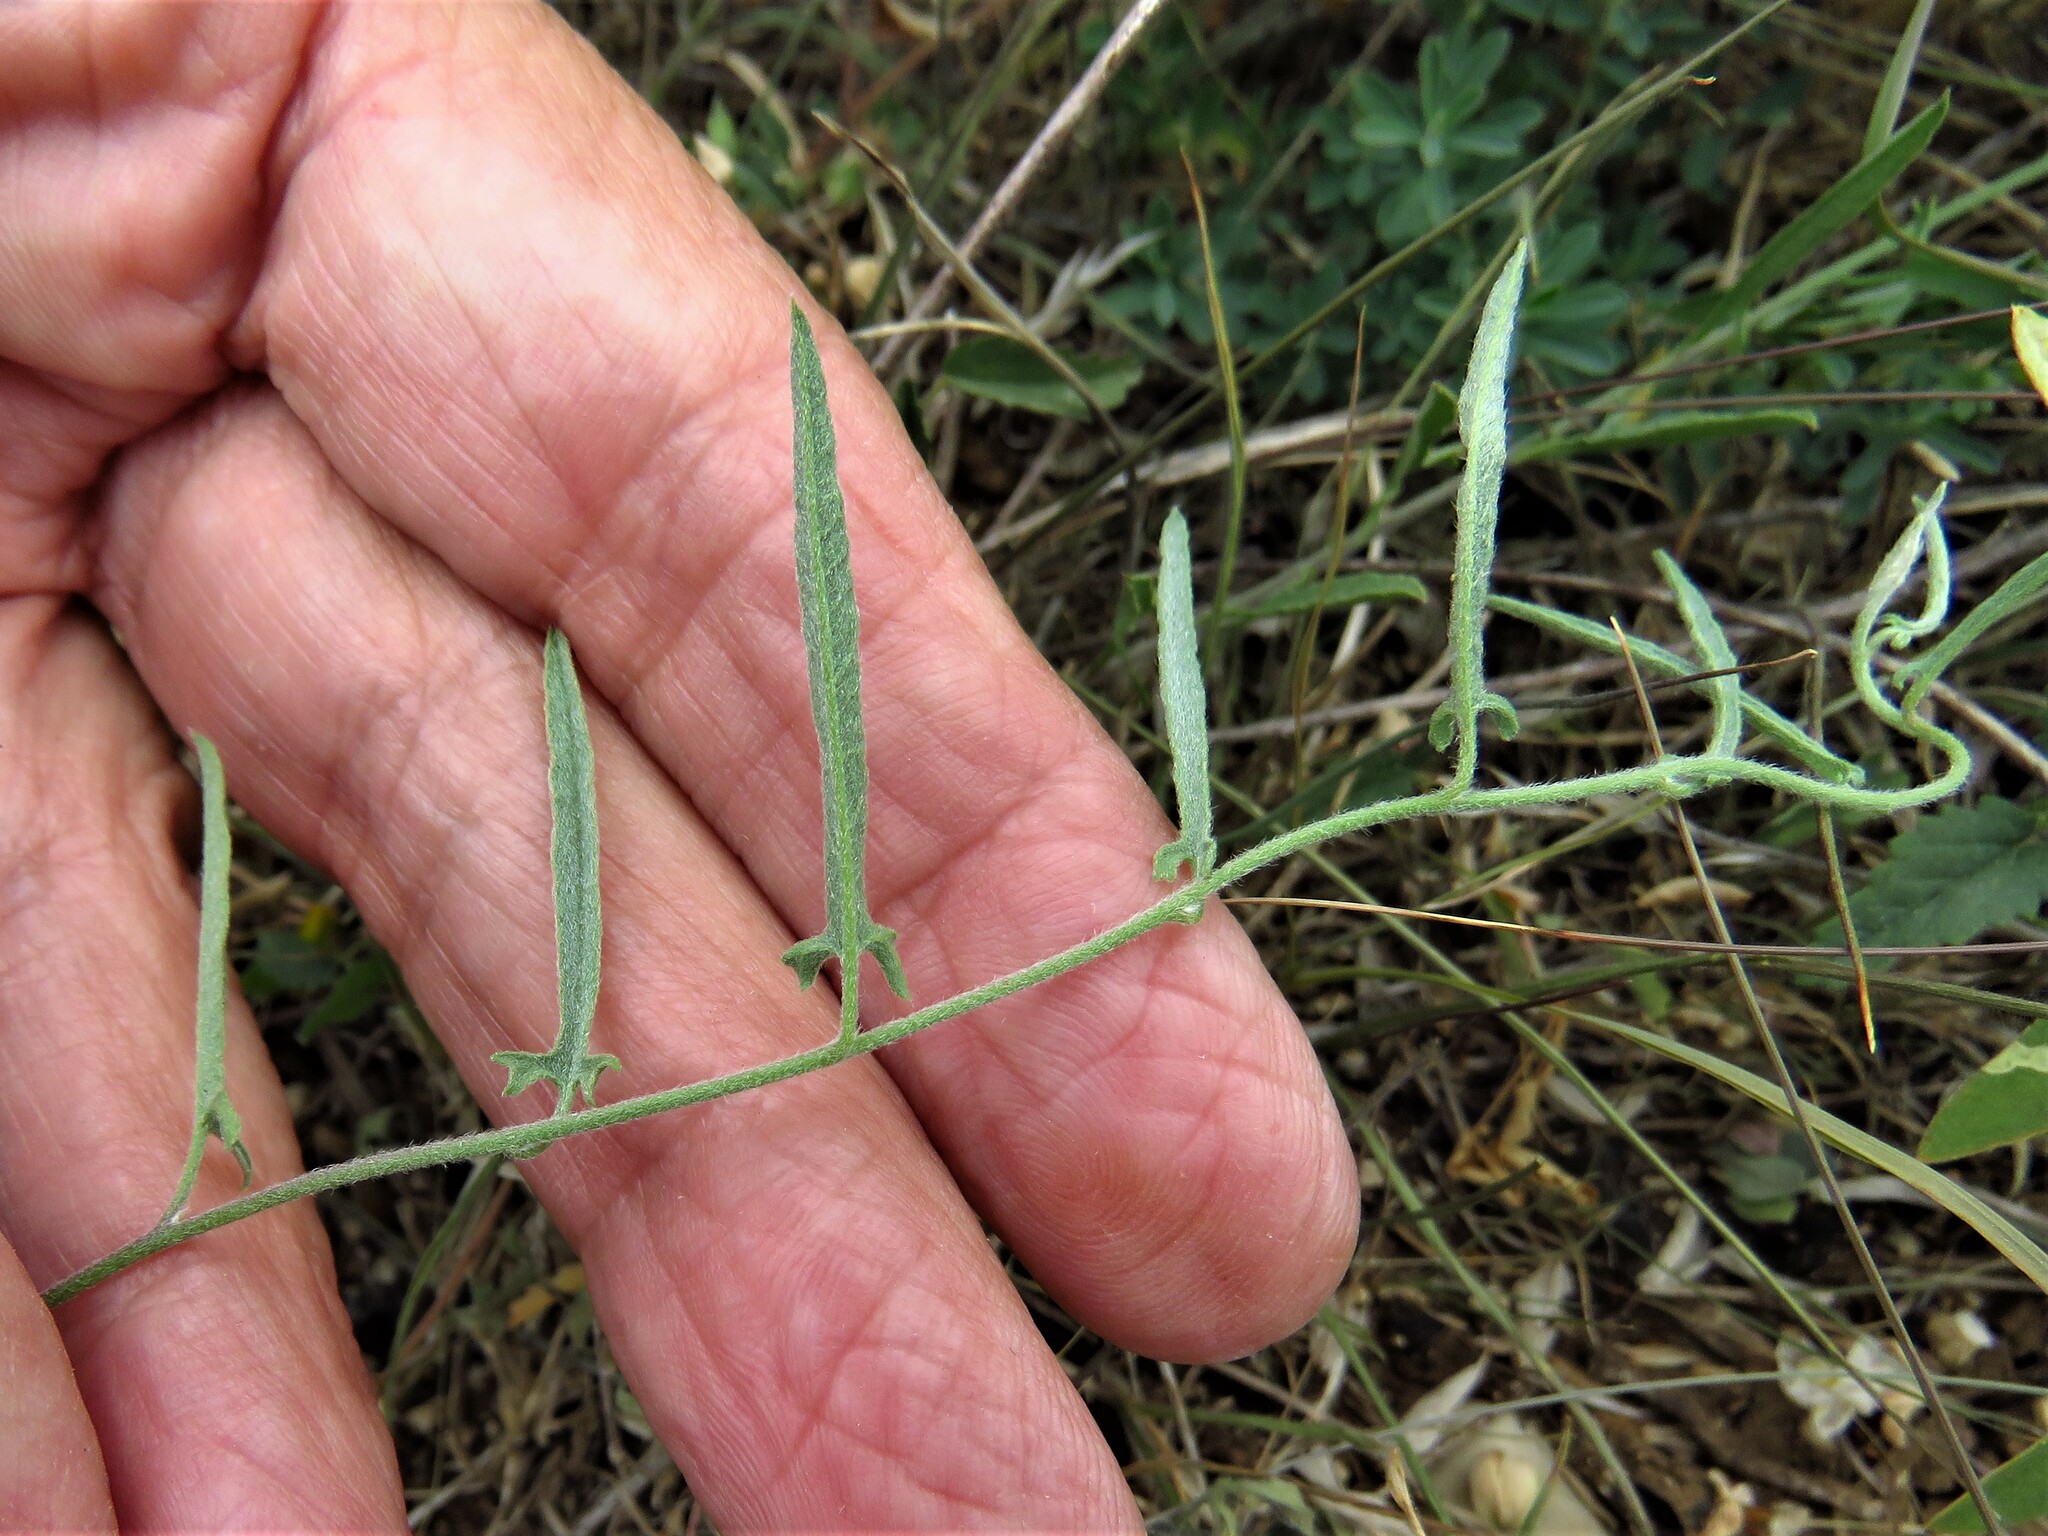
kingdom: Plantae
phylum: Tracheophyta
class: Magnoliopsida
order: Solanales
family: Convolvulaceae
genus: Convolvulus
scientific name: Convolvulus equitans
